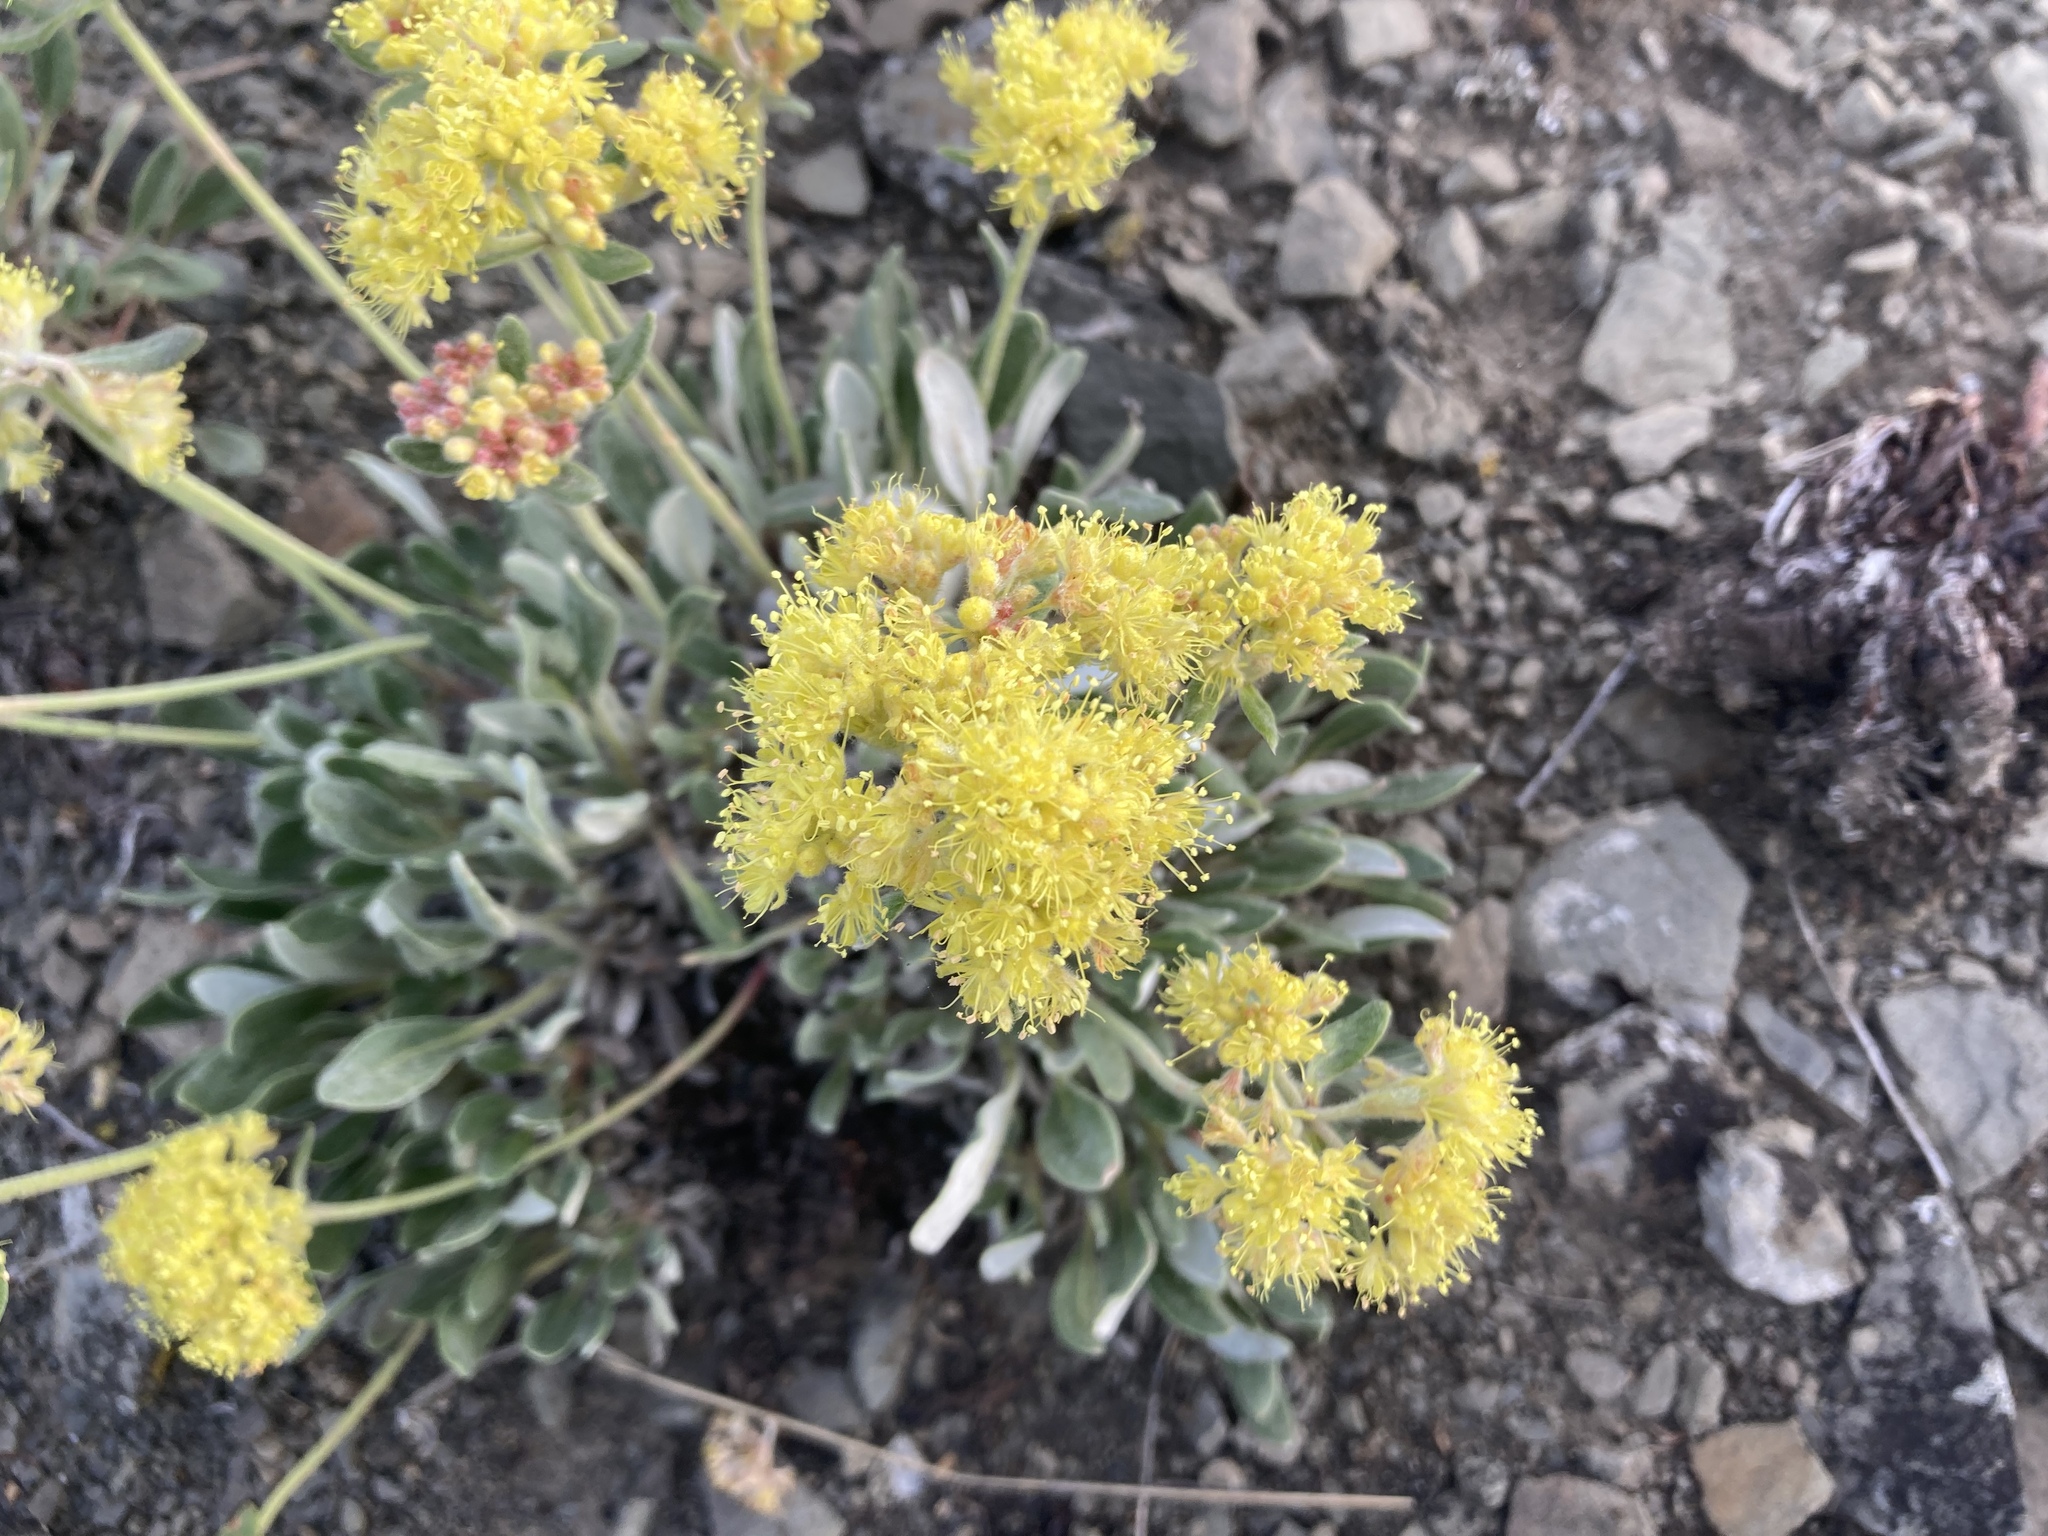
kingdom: Plantae
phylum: Tracheophyta
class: Magnoliopsida
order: Caryophyllales
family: Polygonaceae
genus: Eriogonum
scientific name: Eriogonum flavum
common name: Alpine golden wild buckwheat
